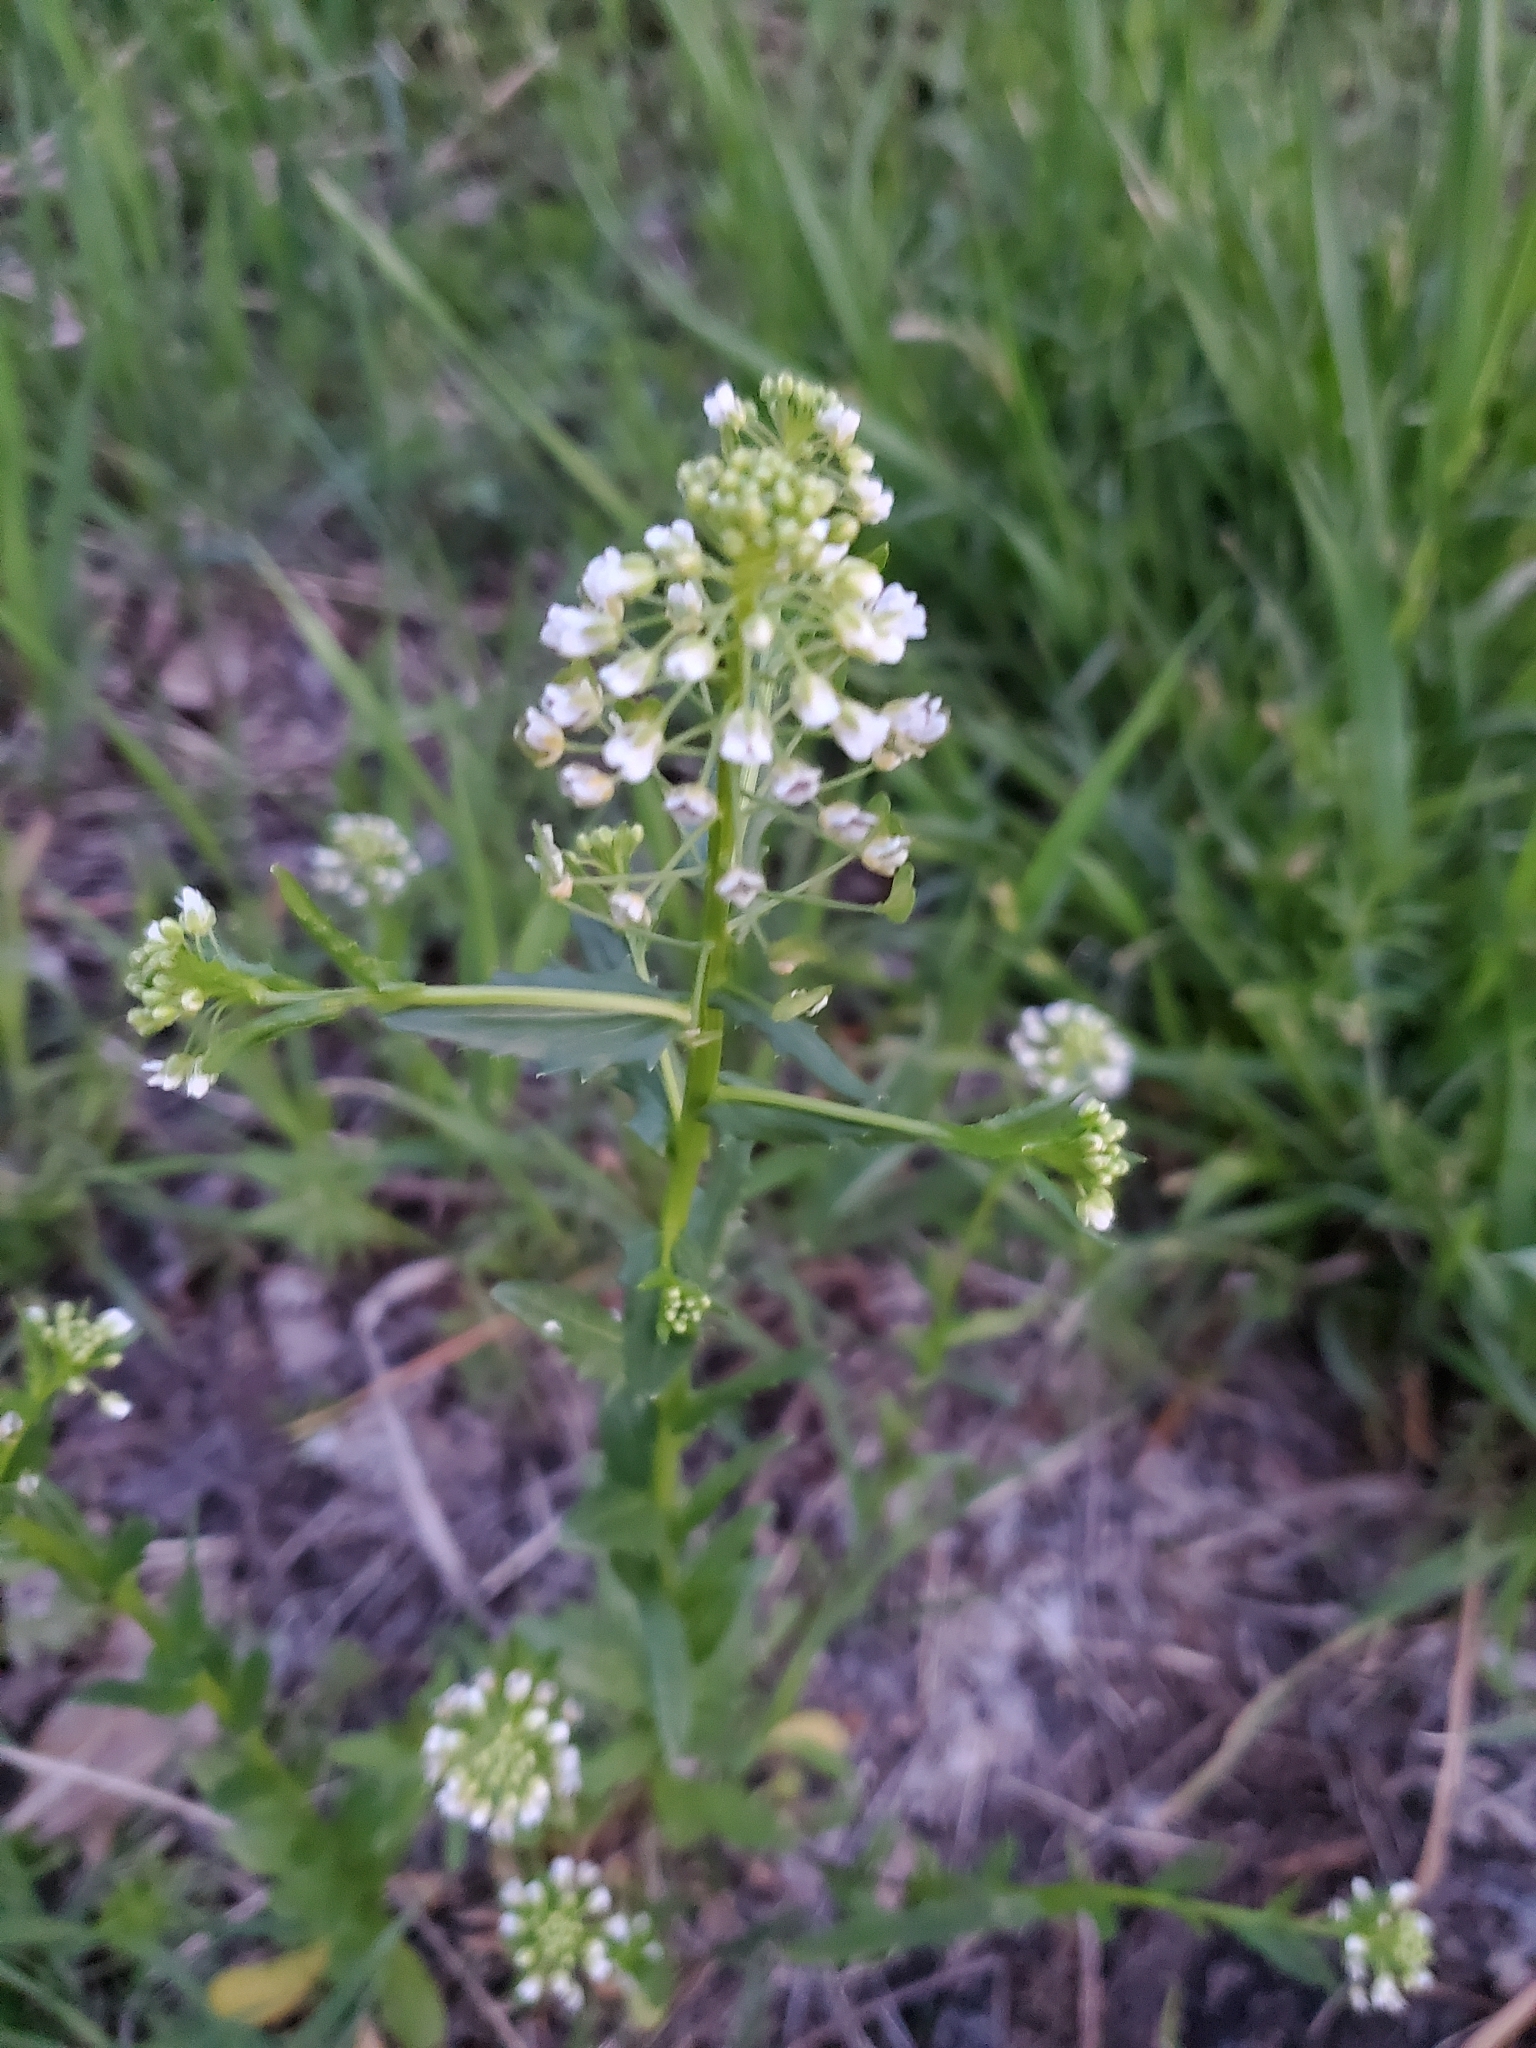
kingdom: Plantae
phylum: Tracheophyta
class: Magnoliopsida
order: Brassicales
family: Brassicaceae
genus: Thlaspi
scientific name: Thlaspi arvense
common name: Field pennycress
